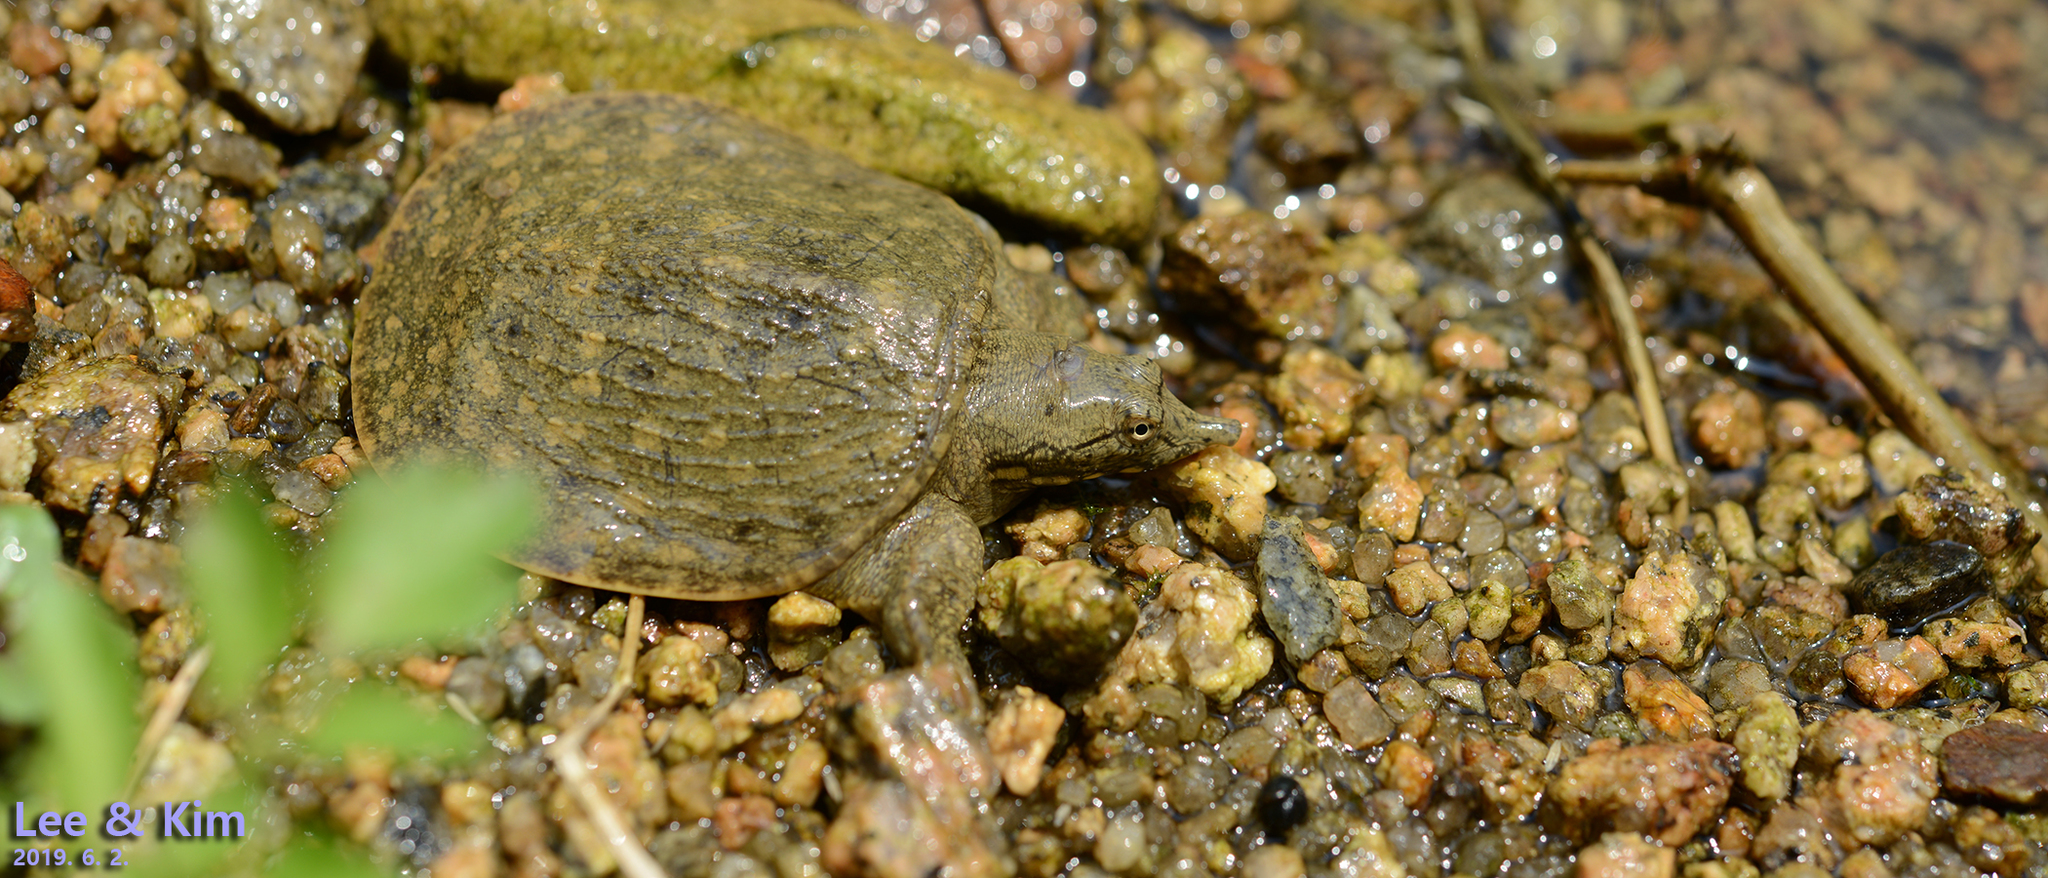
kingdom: Animalia
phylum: Chordata
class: Testudines
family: Trionychidae
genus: Pelodiscus
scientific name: Pelodiscus maackii
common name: Northern chinese softshell turtle
